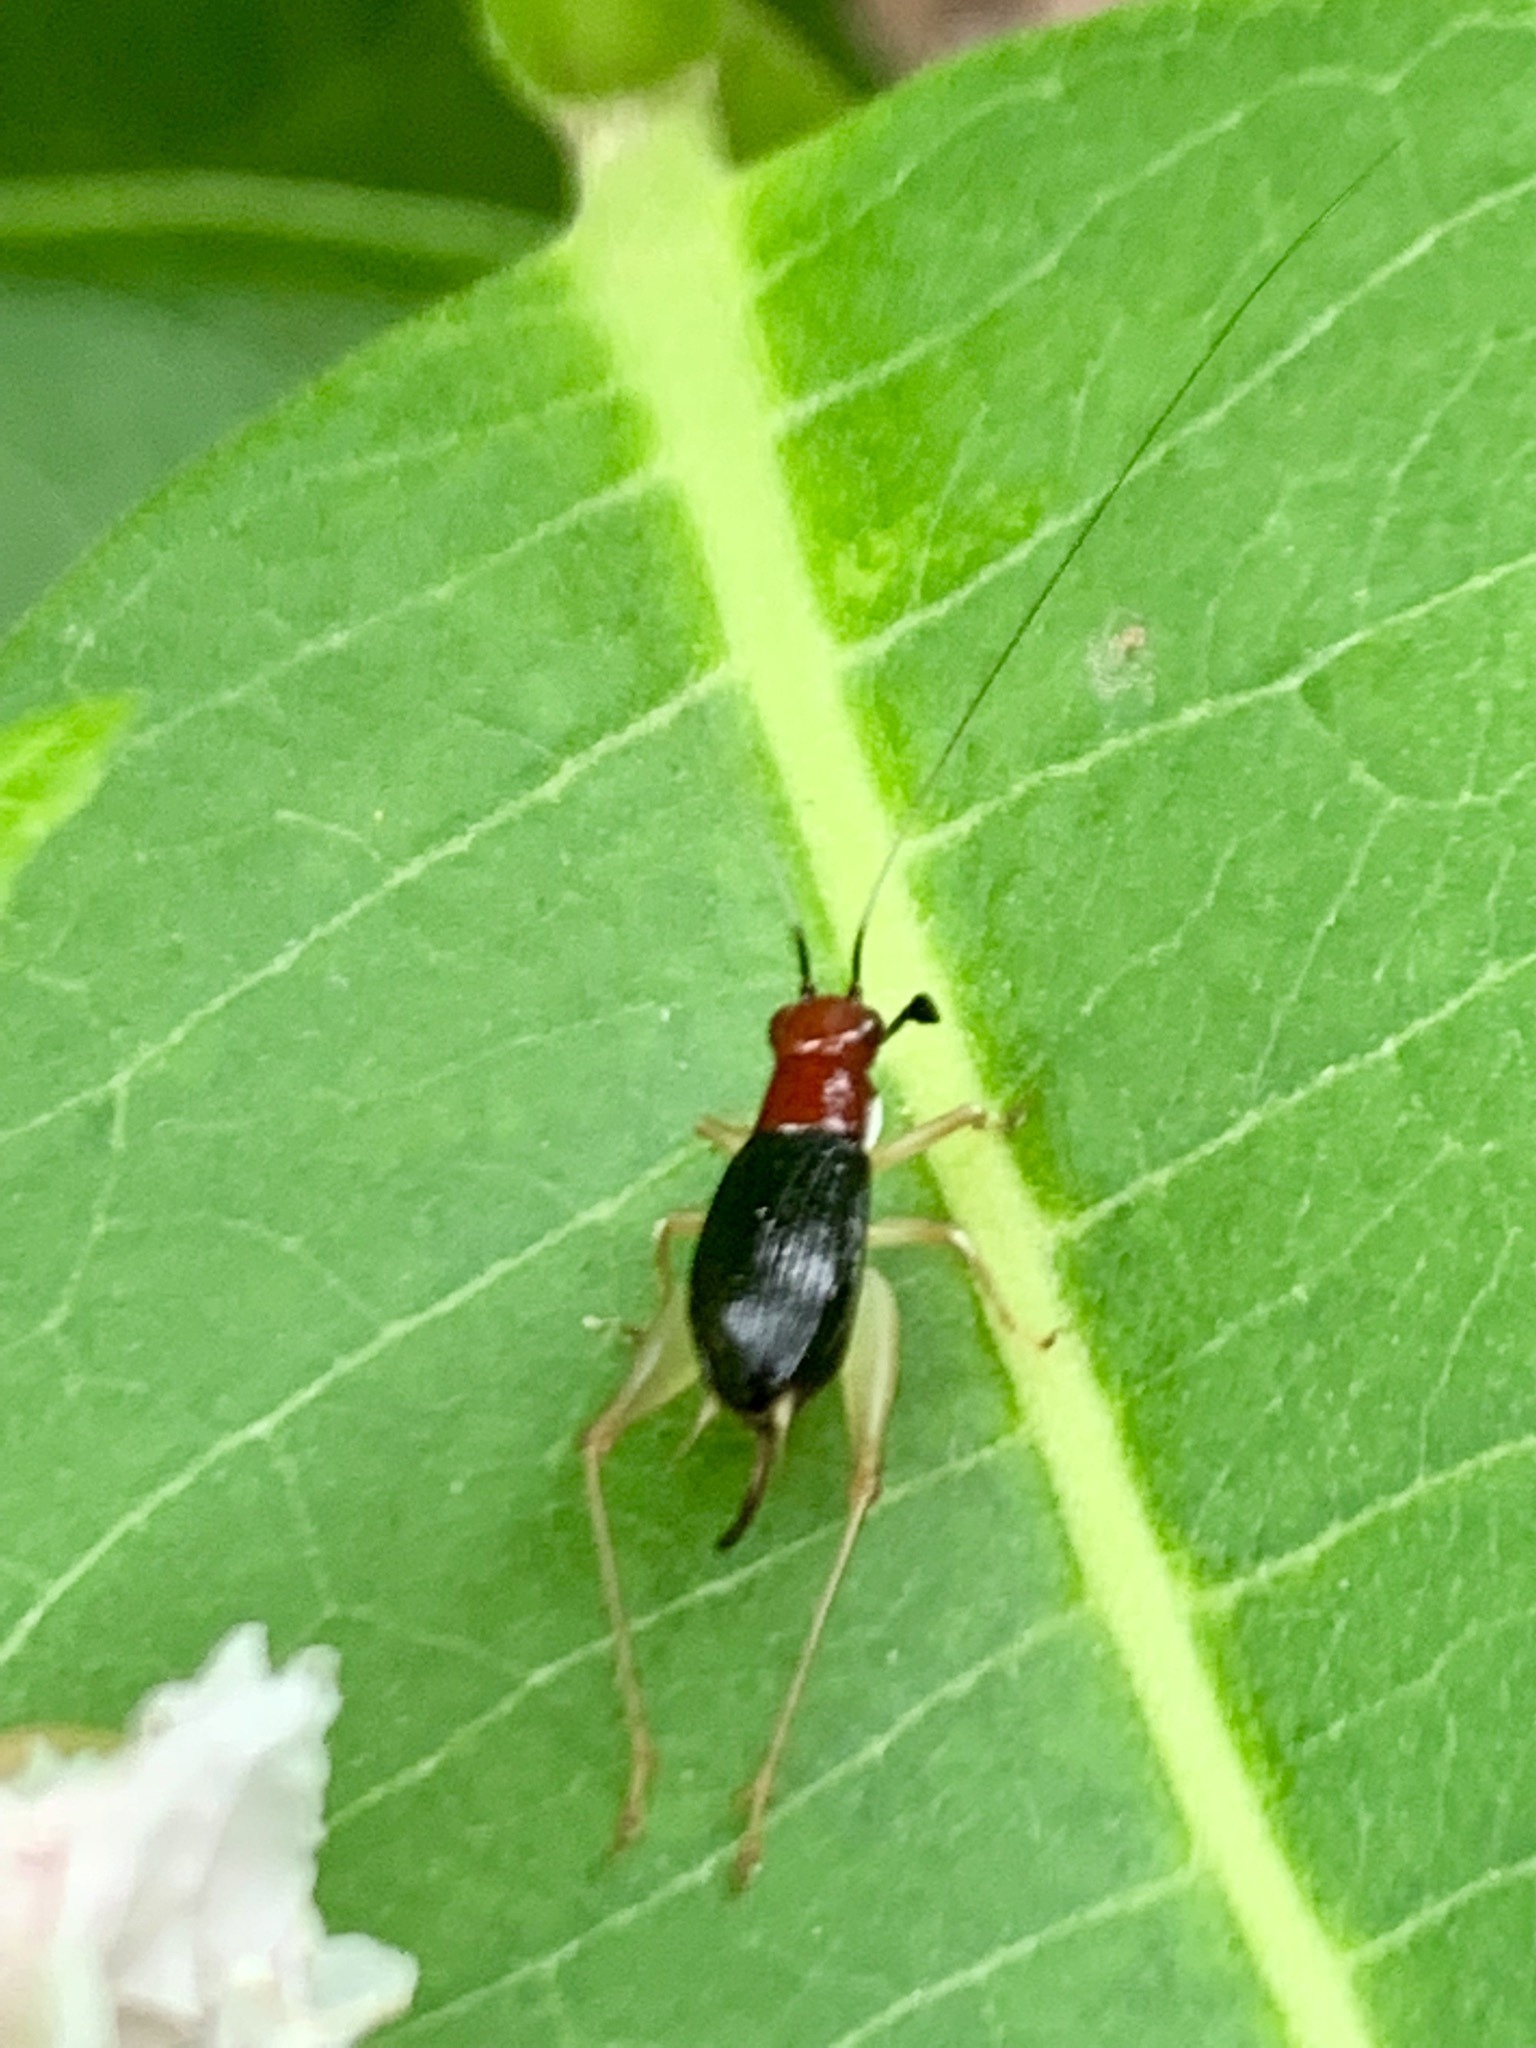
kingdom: Animalia
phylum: Arthropoda
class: Insecta
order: Orthoptera
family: Trigonidiidae
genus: Phyllopalpus
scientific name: Phyllopalpus pulchellus
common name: Handsome trig
